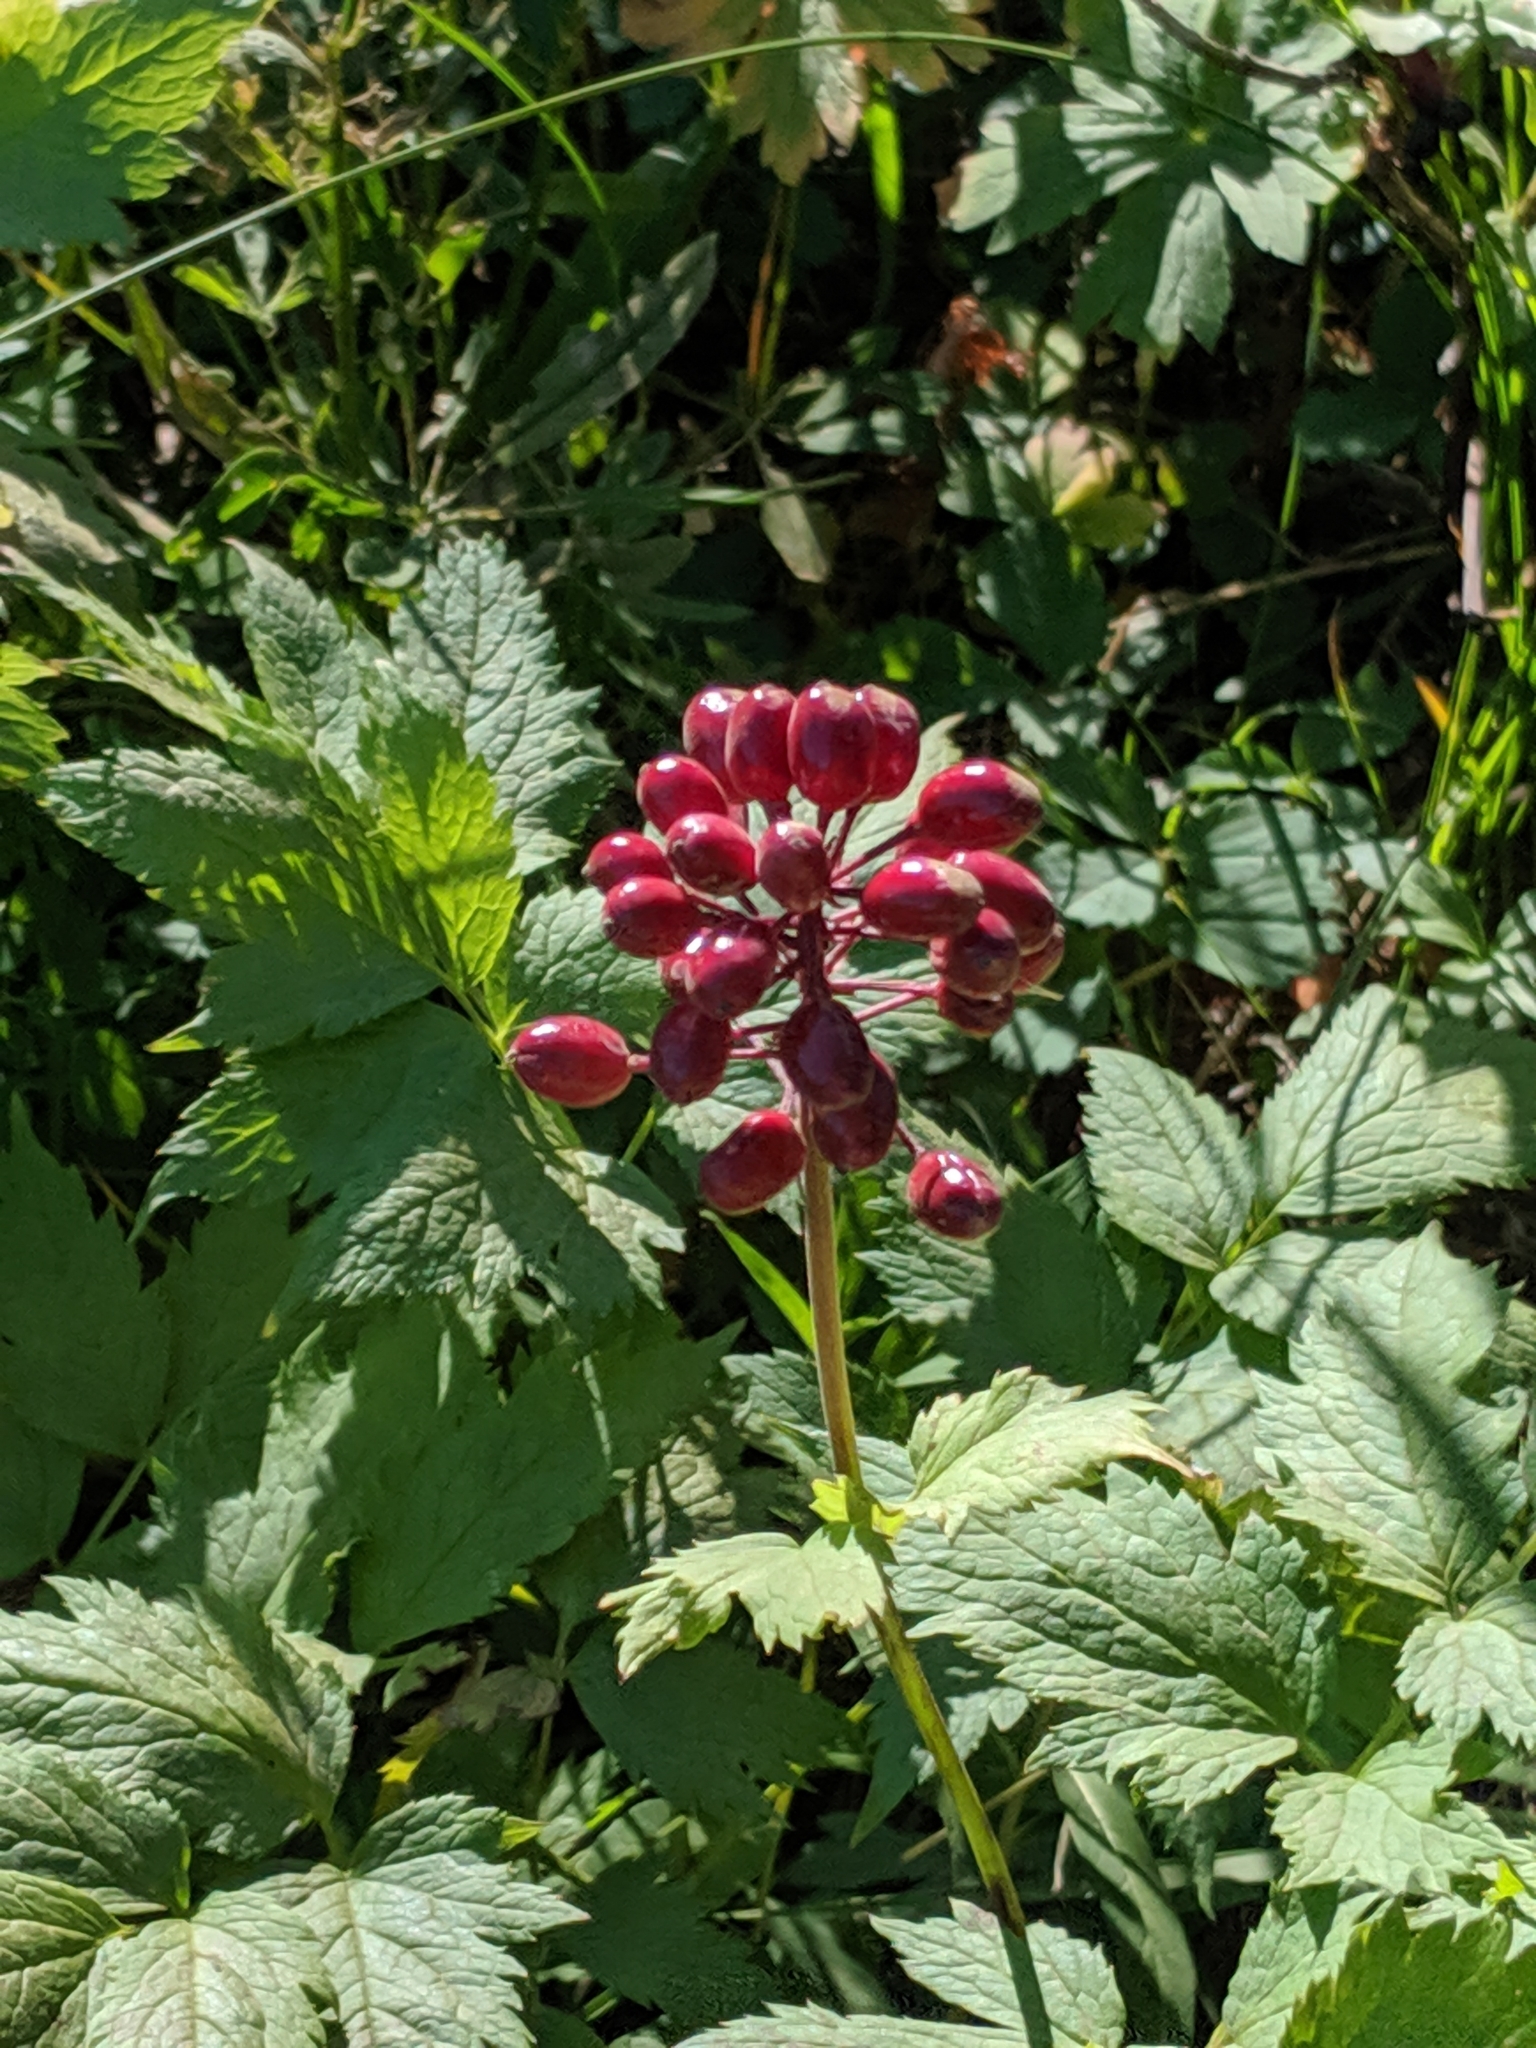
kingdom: Plantae
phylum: Tracheophyta
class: Magnoliopsida
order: Ranunculales
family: Ranunculaceae
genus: Actaea
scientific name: Actaea rubra
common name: Red baneberry
